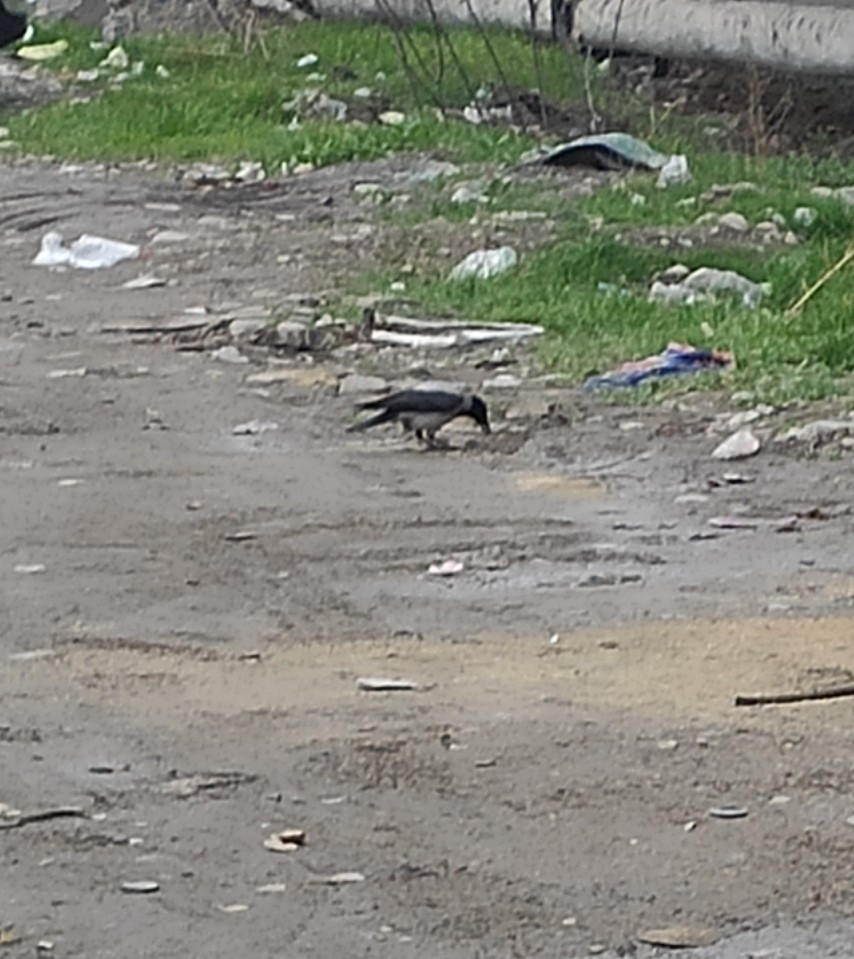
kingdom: Animalia
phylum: Chordata
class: Aves
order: Passeriformes
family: Corvidae
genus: Corvus
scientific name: Corvus cornix
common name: Hooded crow
